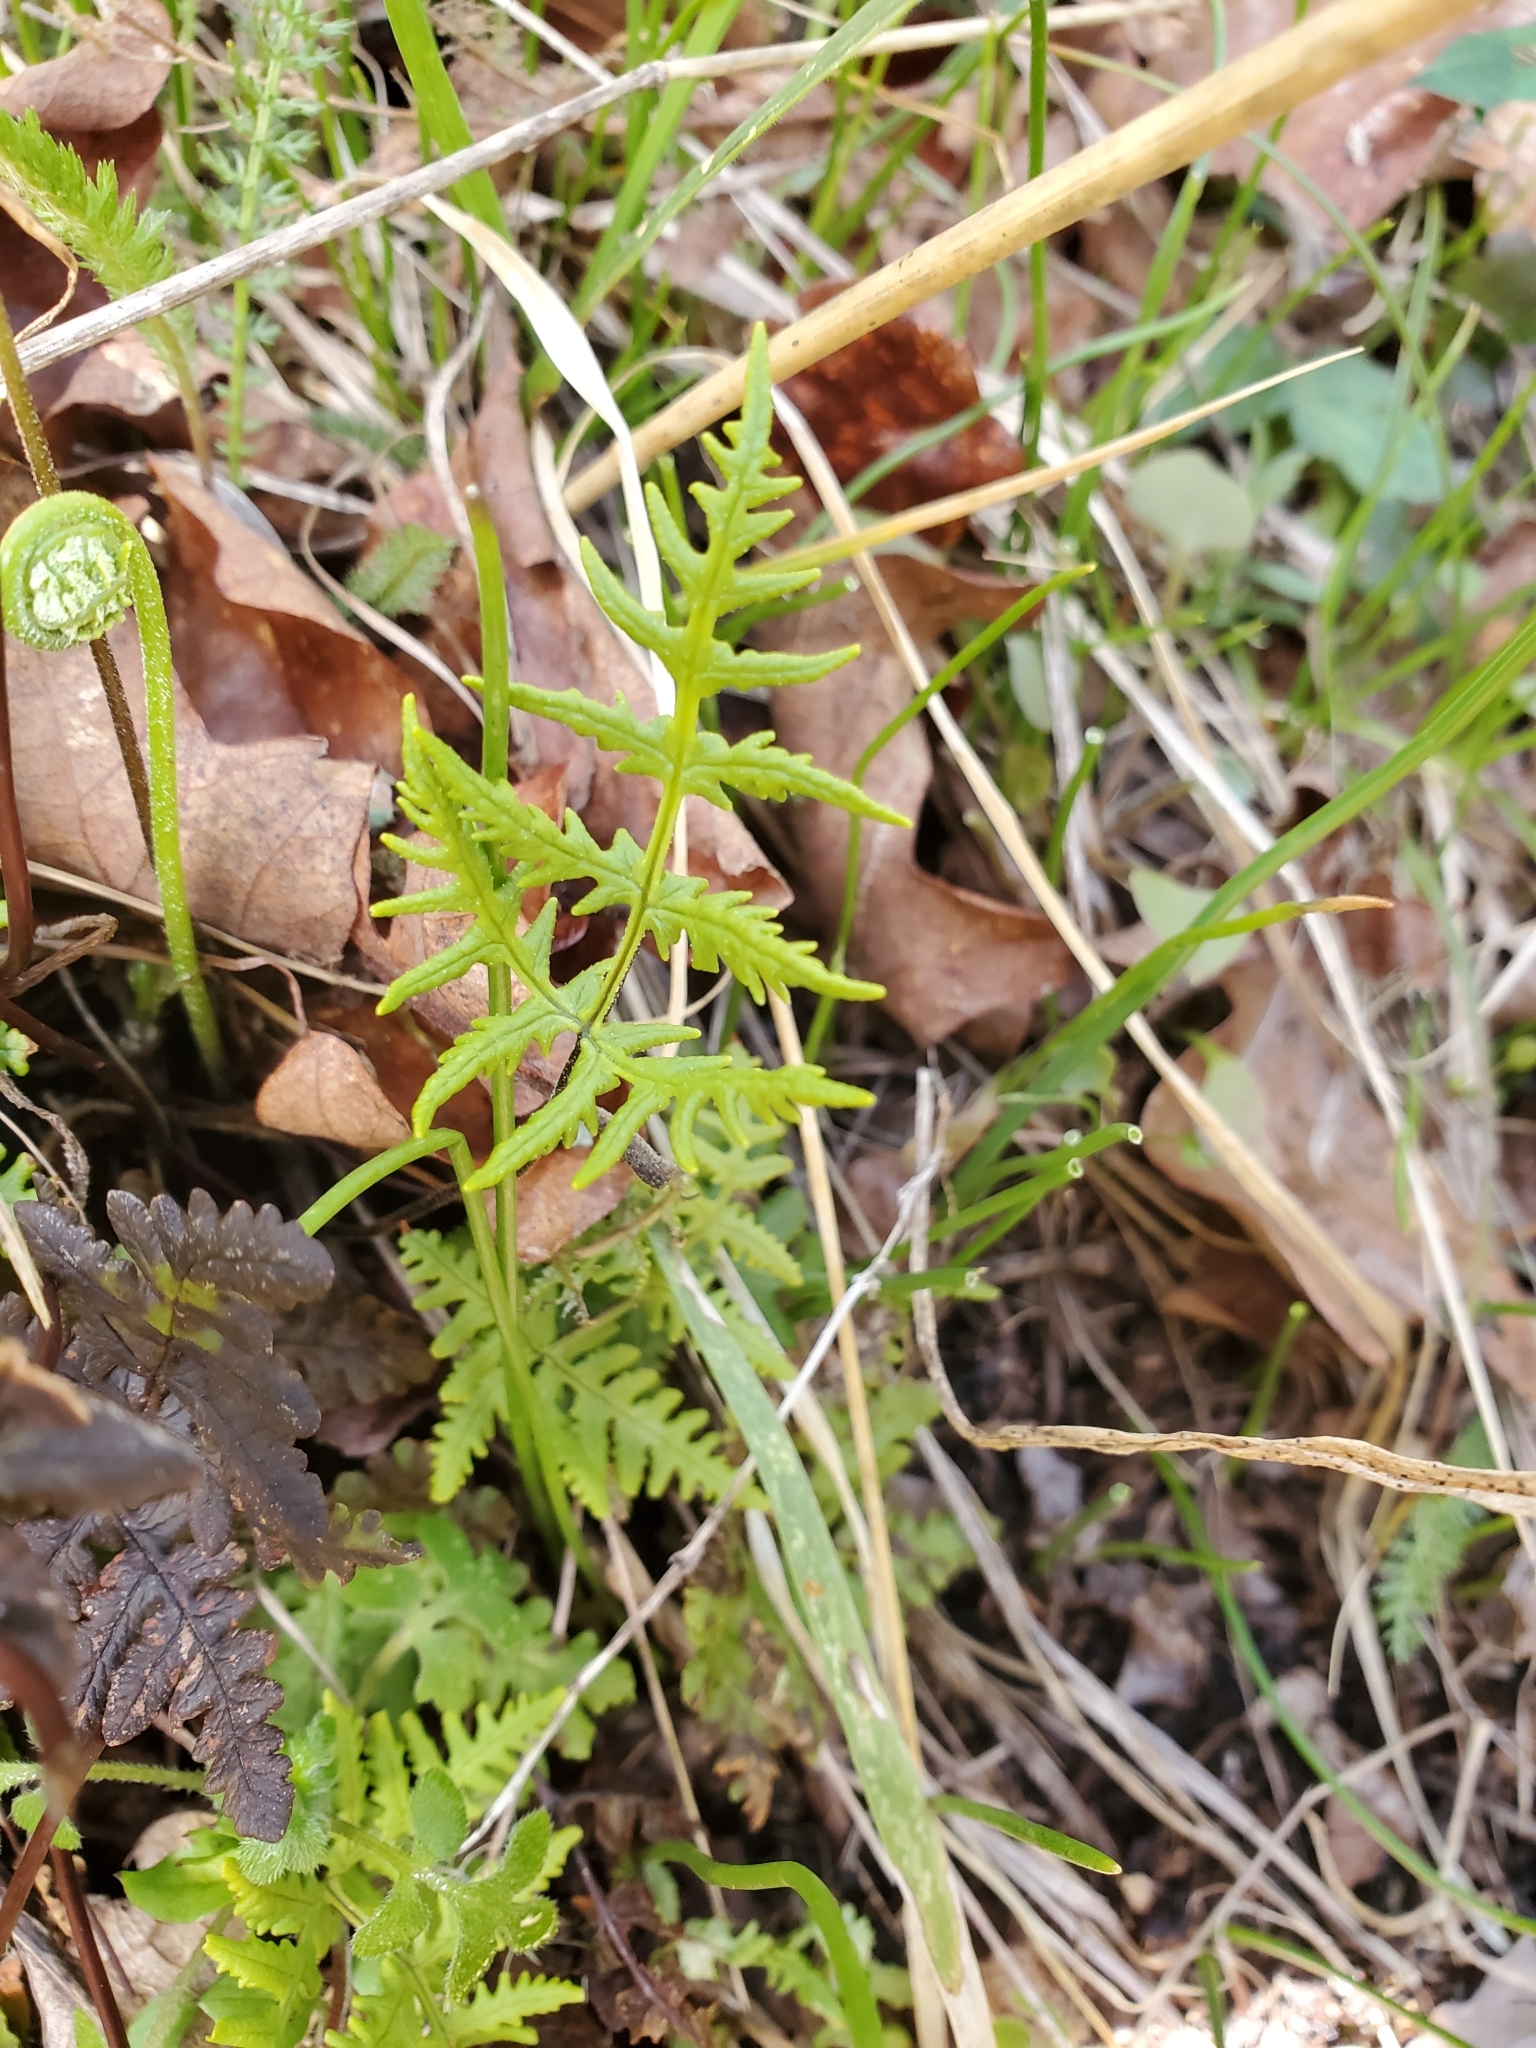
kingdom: Plantae
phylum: Tracheophyta
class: Polypodiopsida
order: Polypodiales
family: Pteridaceae
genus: Pentagramma
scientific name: Pentagramma triangularis
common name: Gold fern
